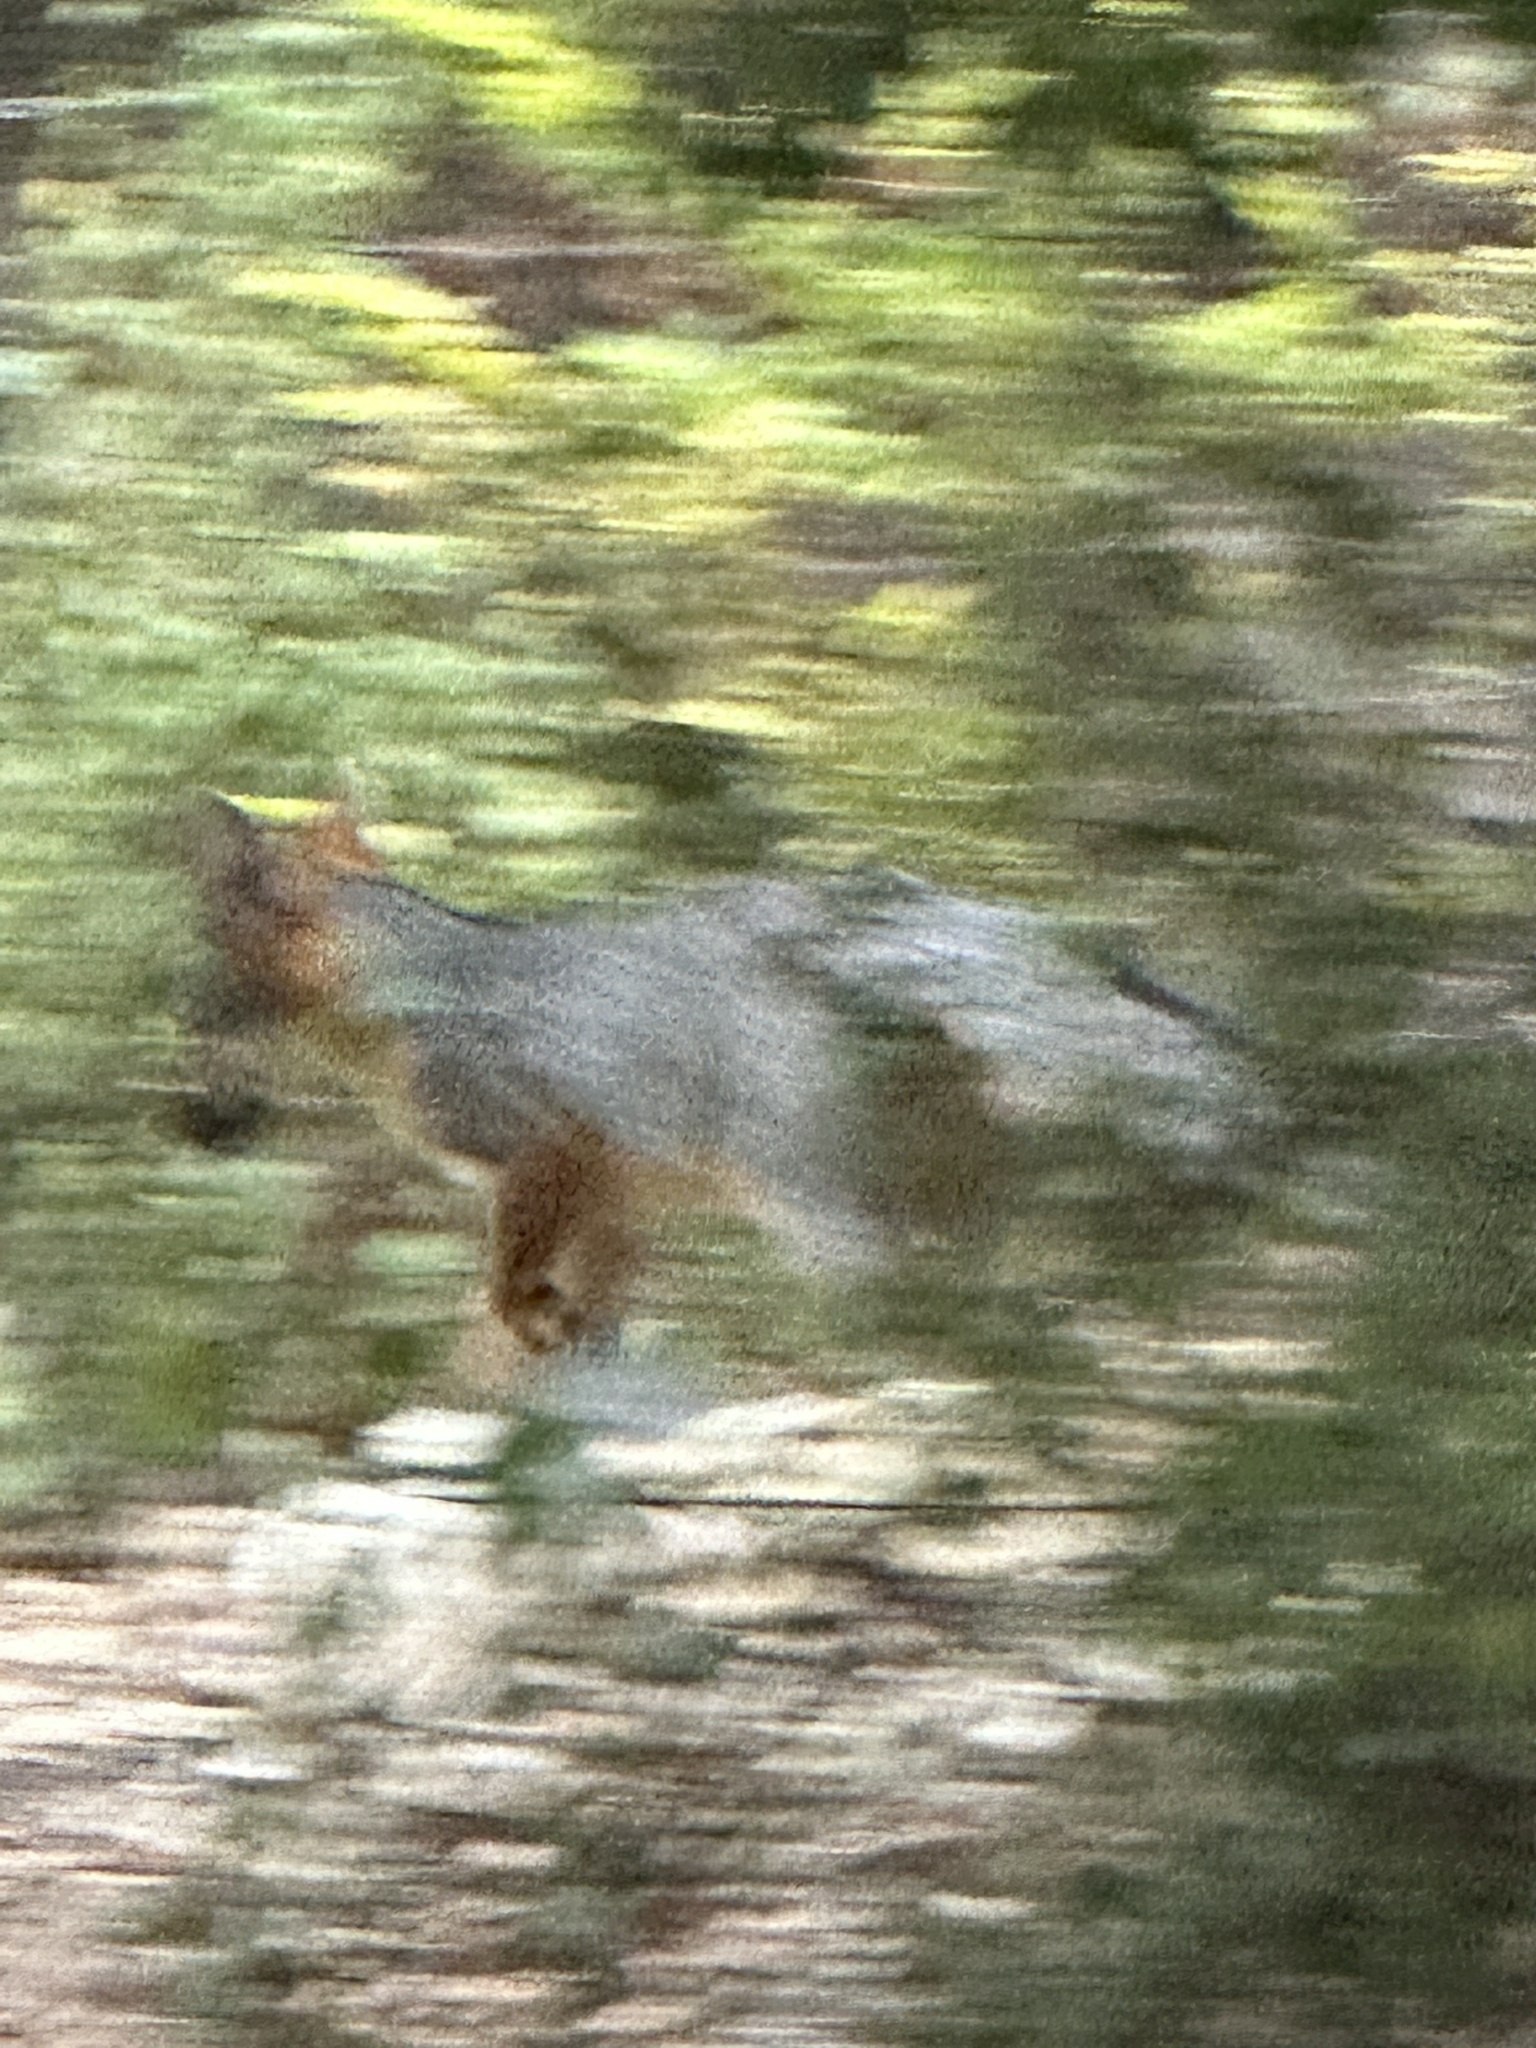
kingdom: Animalia
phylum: Chordata
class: Mammalia
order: Carnivora
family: Canidae
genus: Urocyon
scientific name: Urocyon cinereoargenteus
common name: Gray fox
